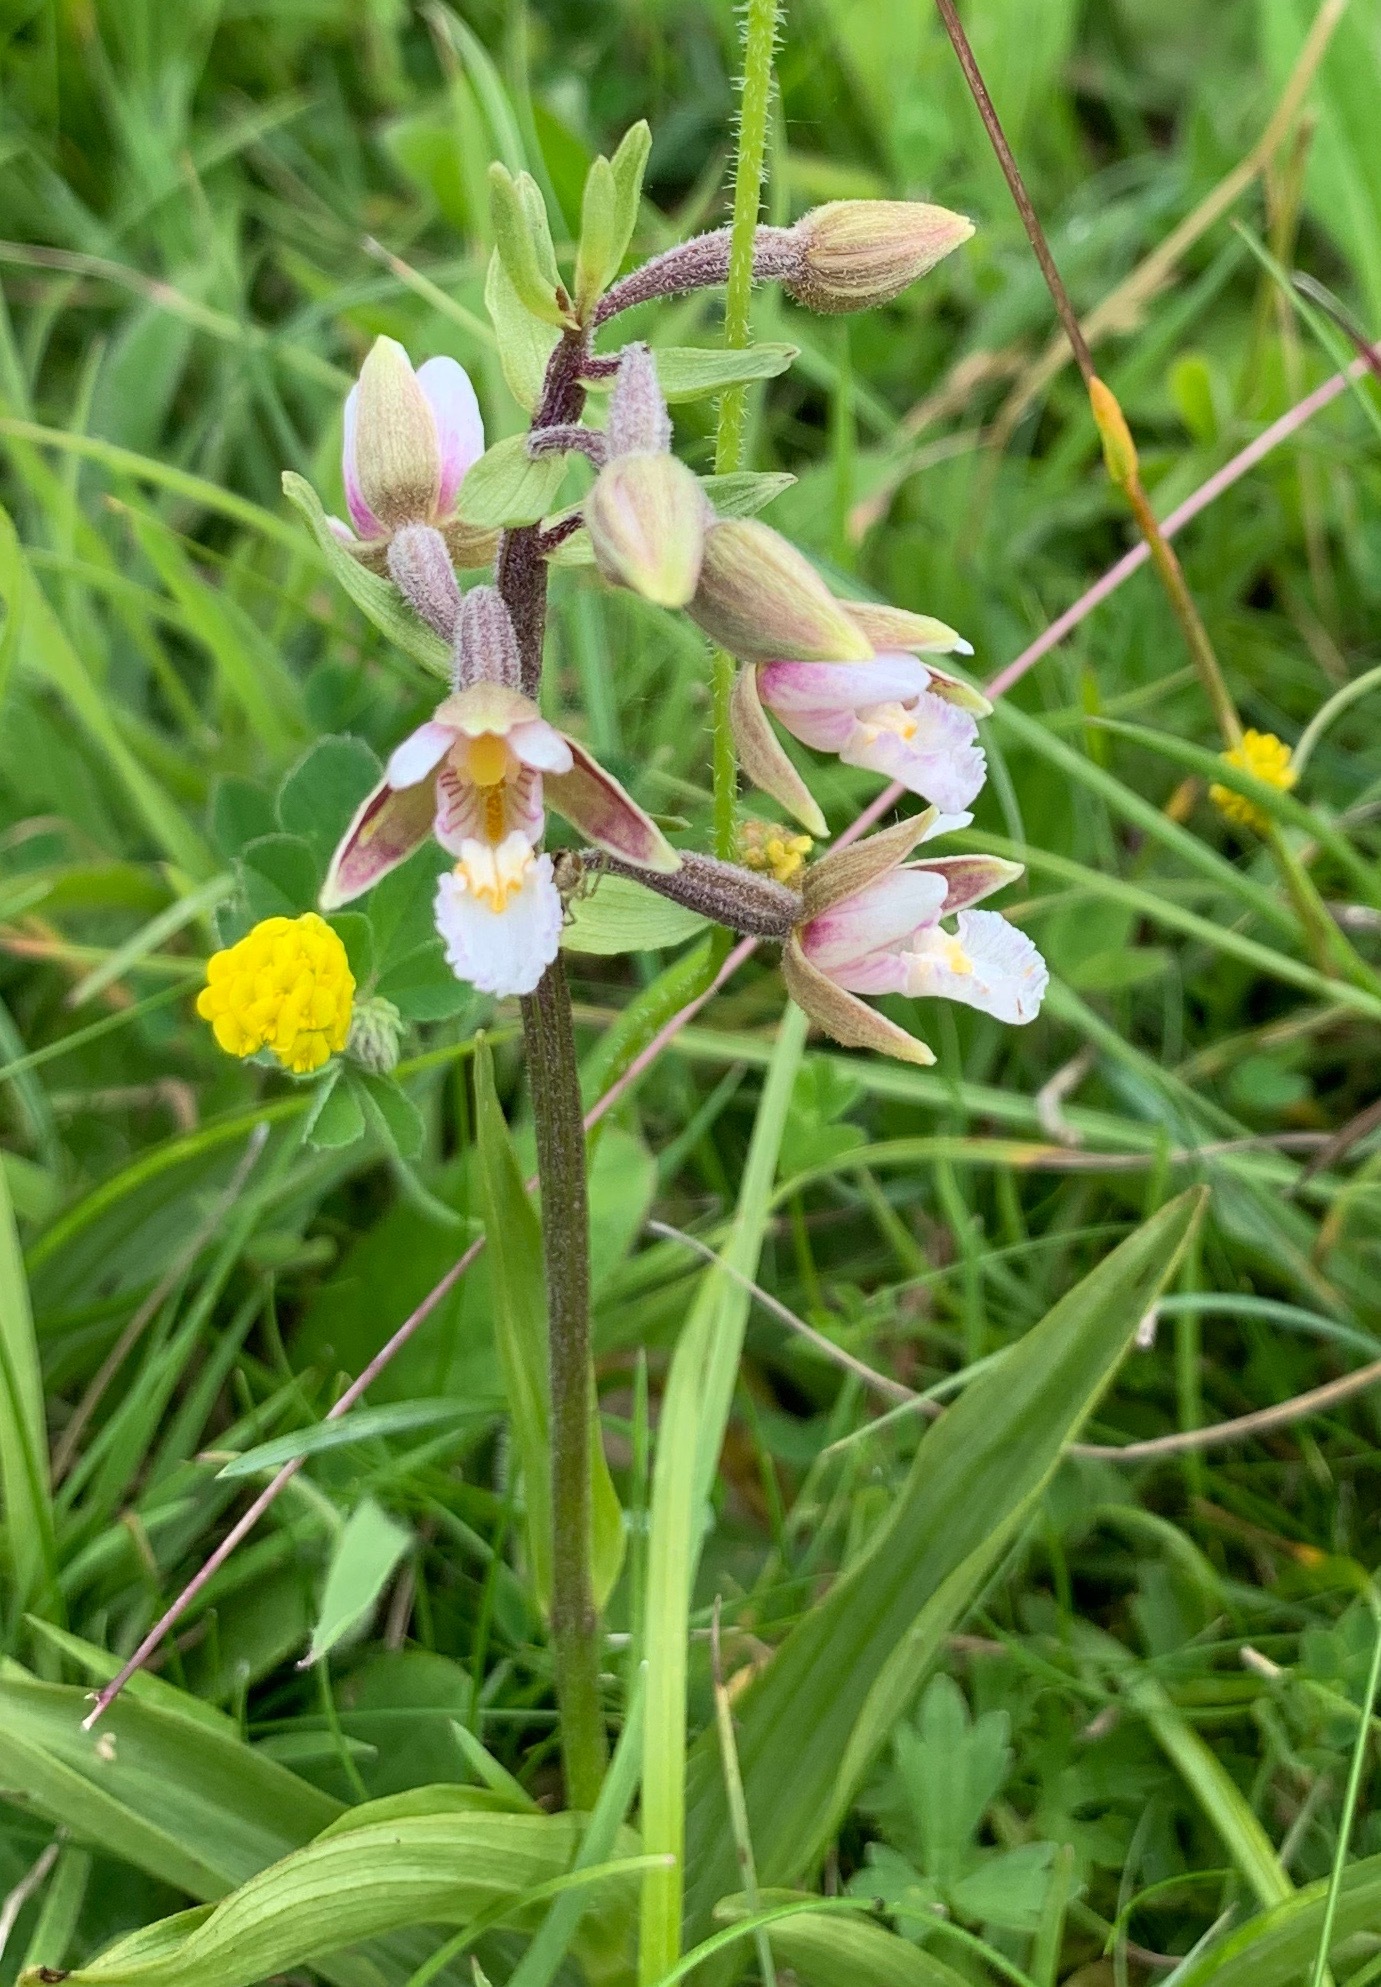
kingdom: Plantae
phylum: Tracheophyta
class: Liliopsida
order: Asparagales
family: Orchidaceae
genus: Epipactis
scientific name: Epipactis palustris
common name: Marsh helleborine
